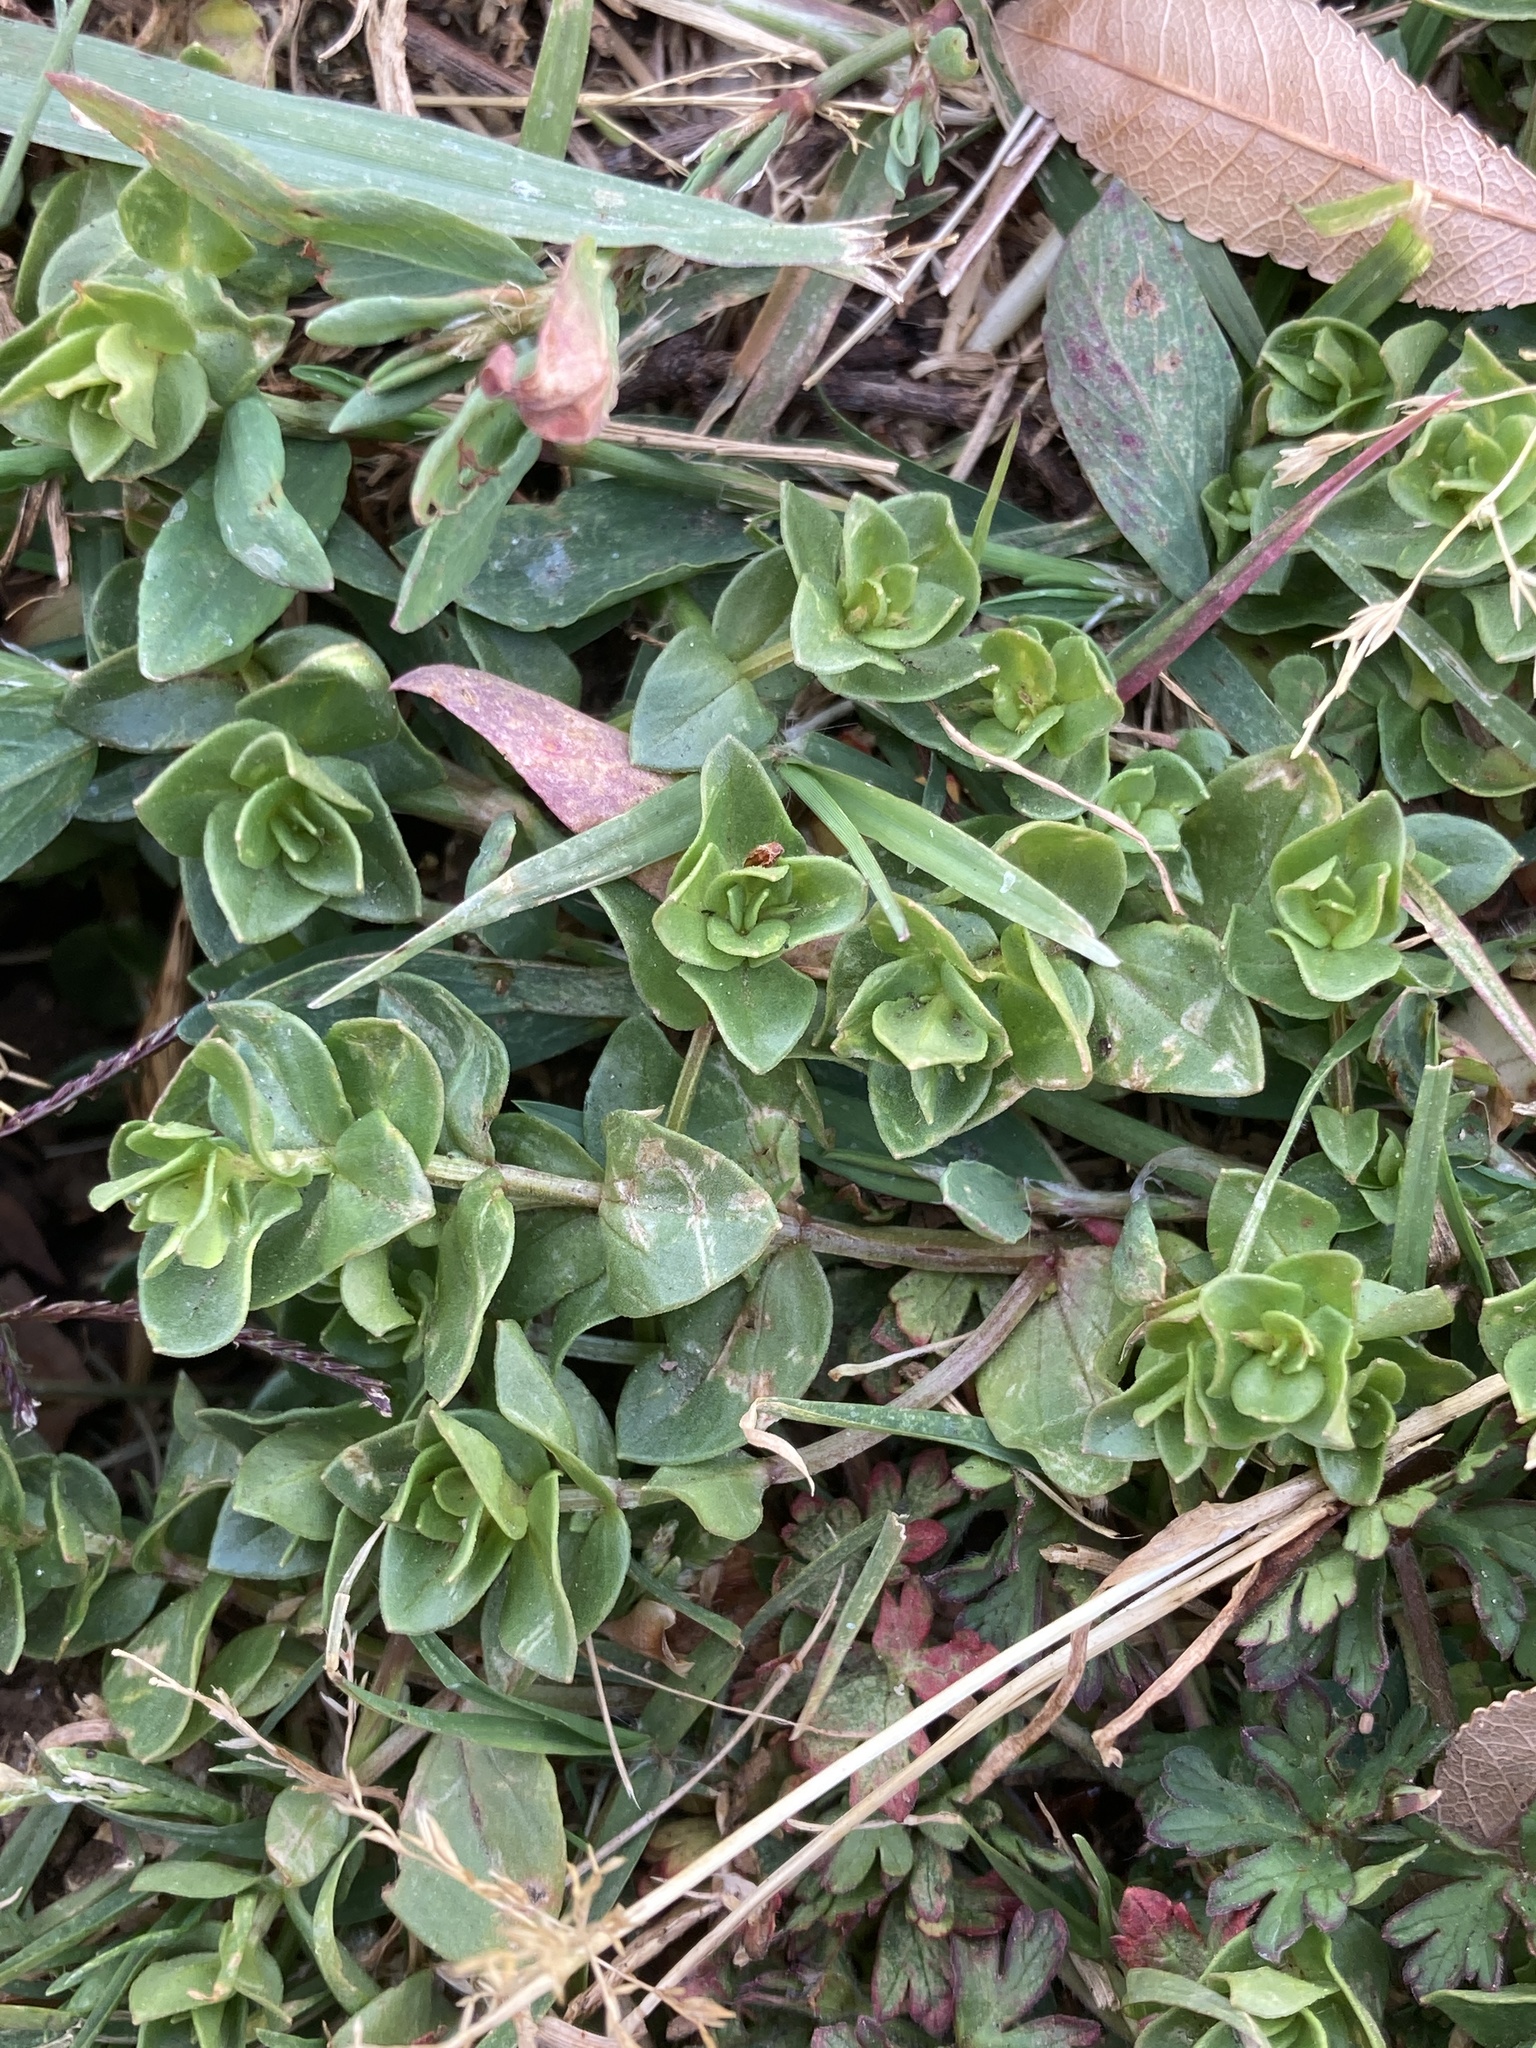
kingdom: Plantae
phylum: Tracheophyta
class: Magnoliopsida
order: Ericales
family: Primulaceae
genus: Lysimachia
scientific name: Lysimachia arvensis
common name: Scarlet pimpernel
